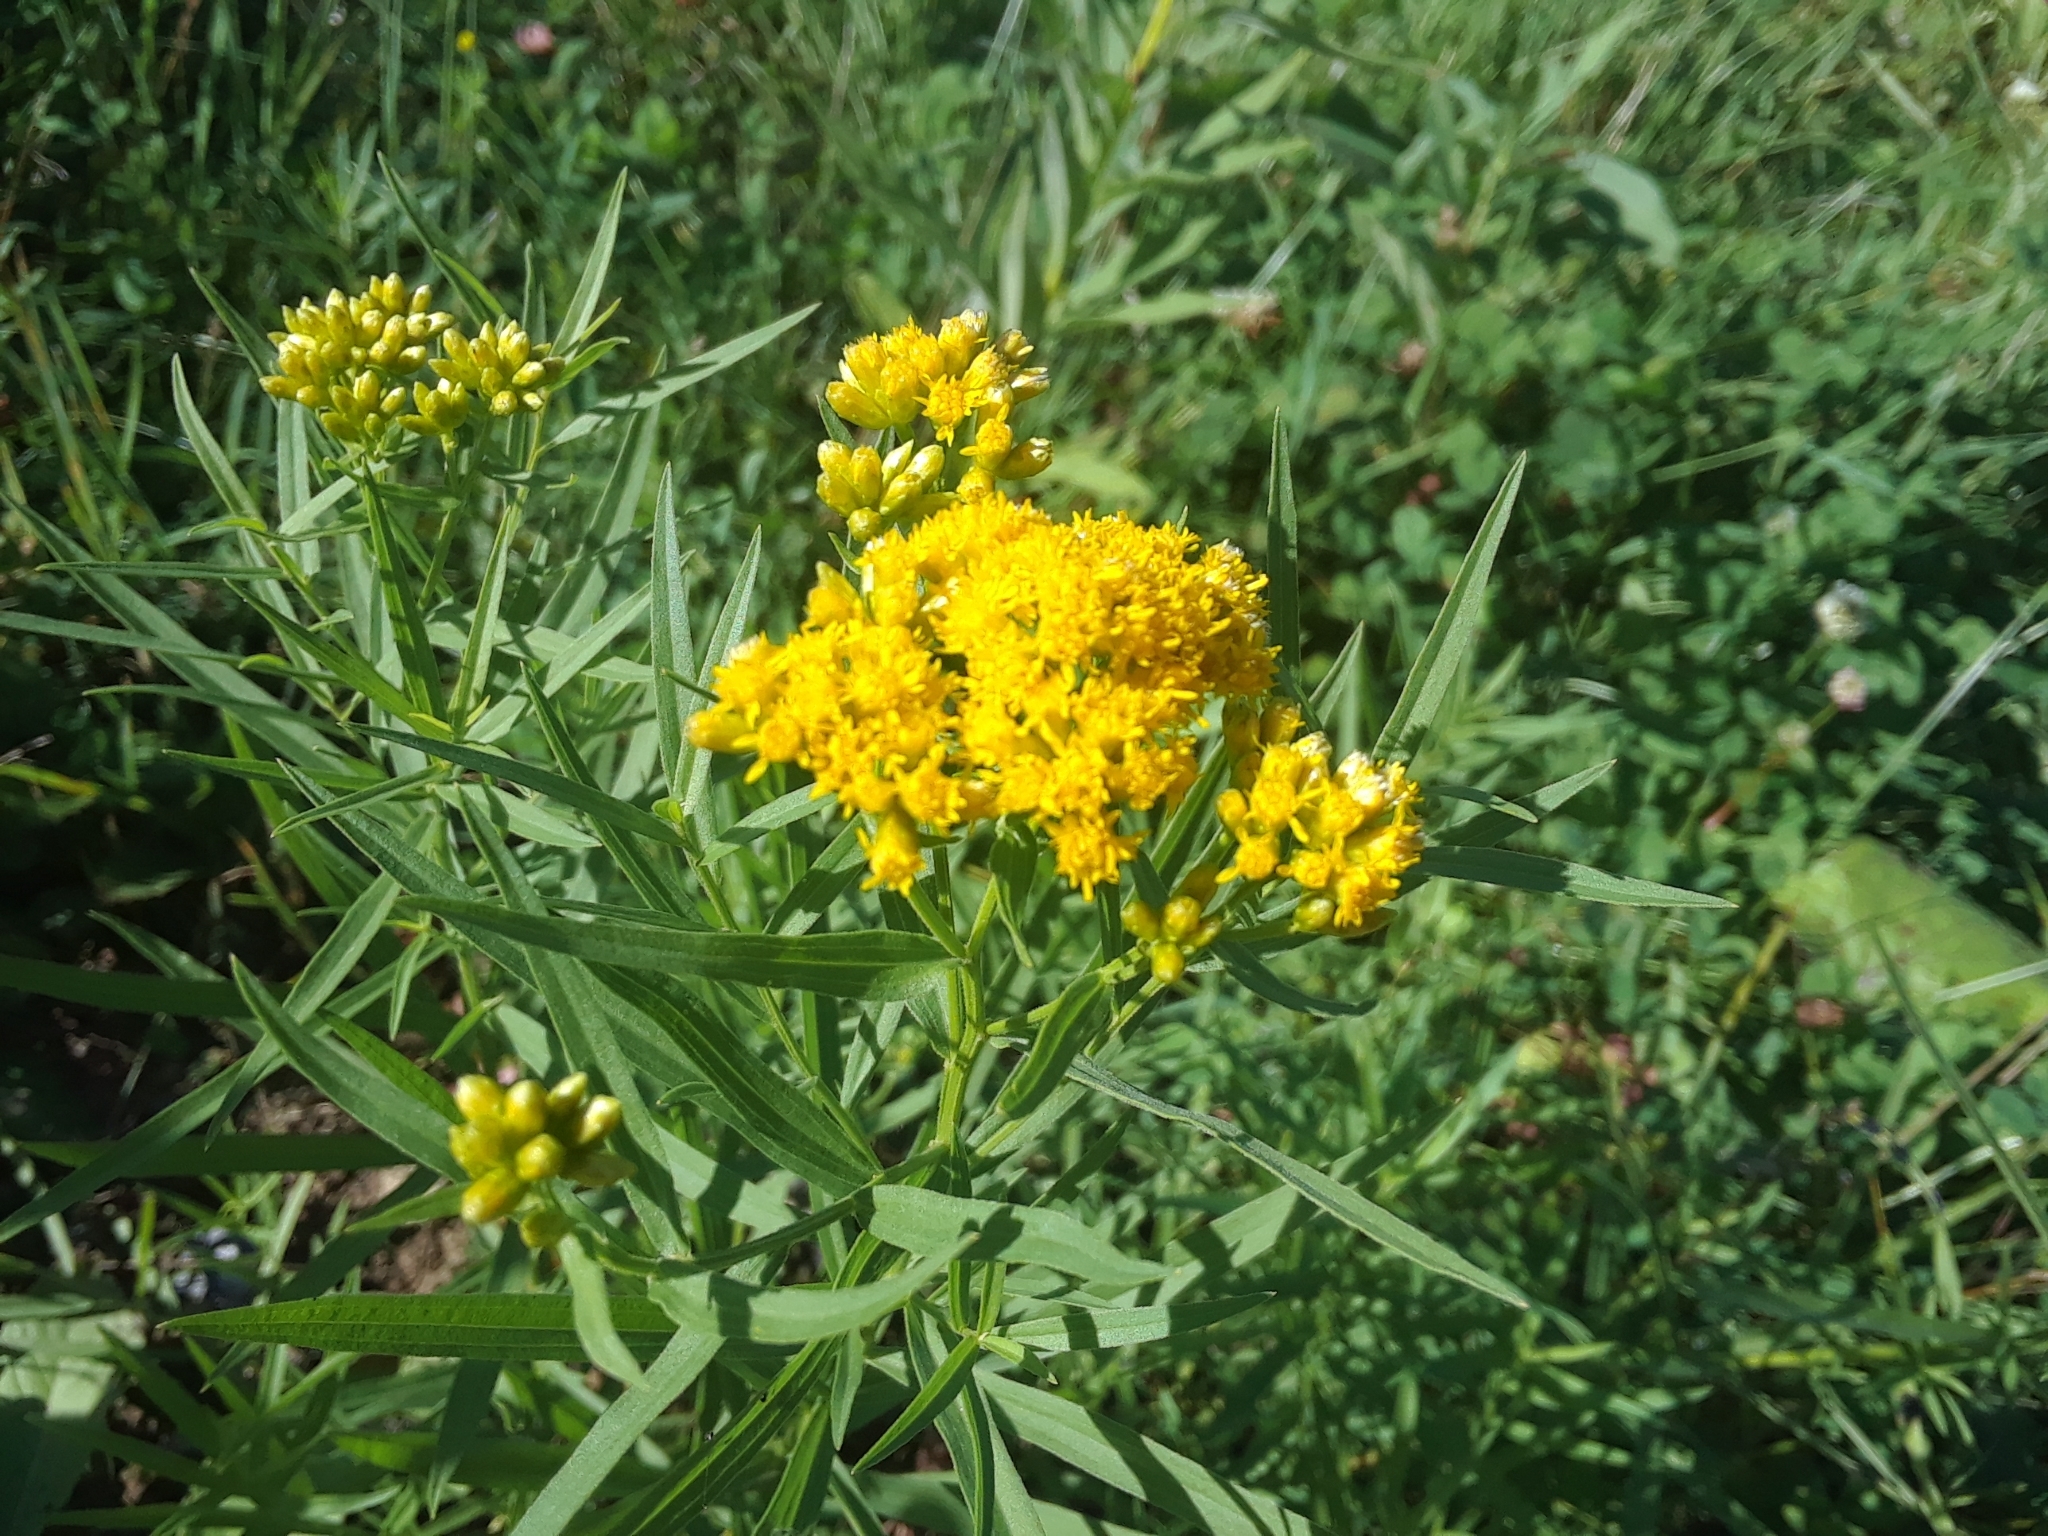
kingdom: Plantae
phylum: Tracheophyta
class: Magnoliopsida
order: Asterales
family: Asteraceae
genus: Euthamia
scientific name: Euthamia graminifolia
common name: Common goldentop
